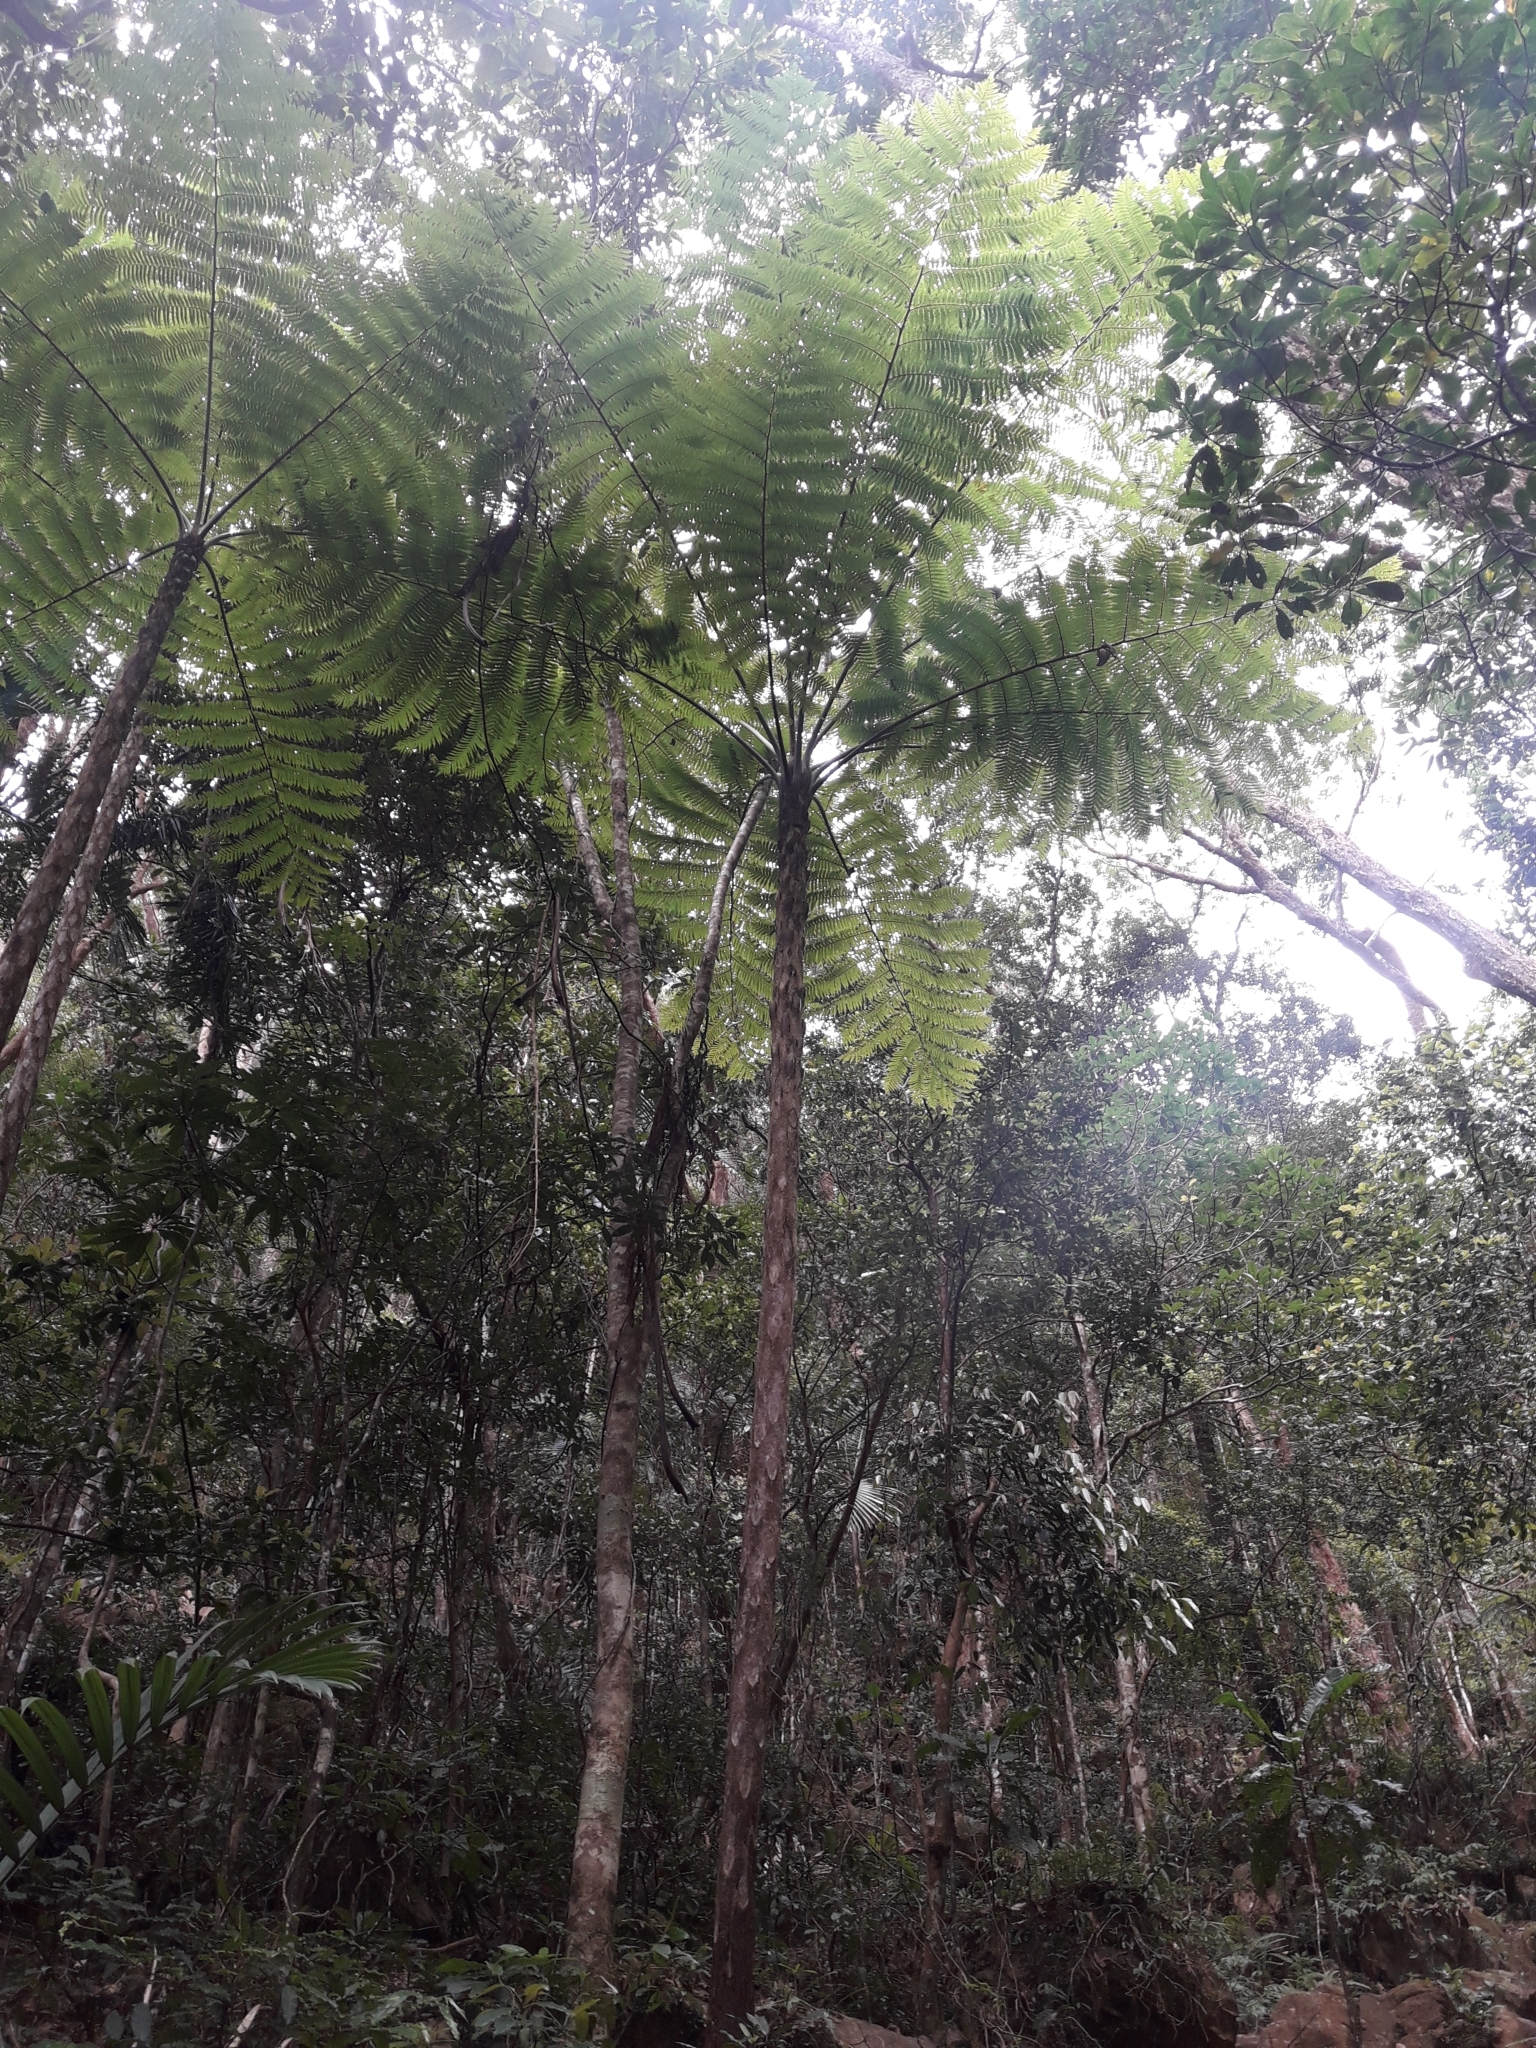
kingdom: Plantae
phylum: Tracheophyta
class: Polypodiopsida
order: Cyatheales
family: Cyatheaceae
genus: Sphaeropteris
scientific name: Sphaeropteris intermedia
